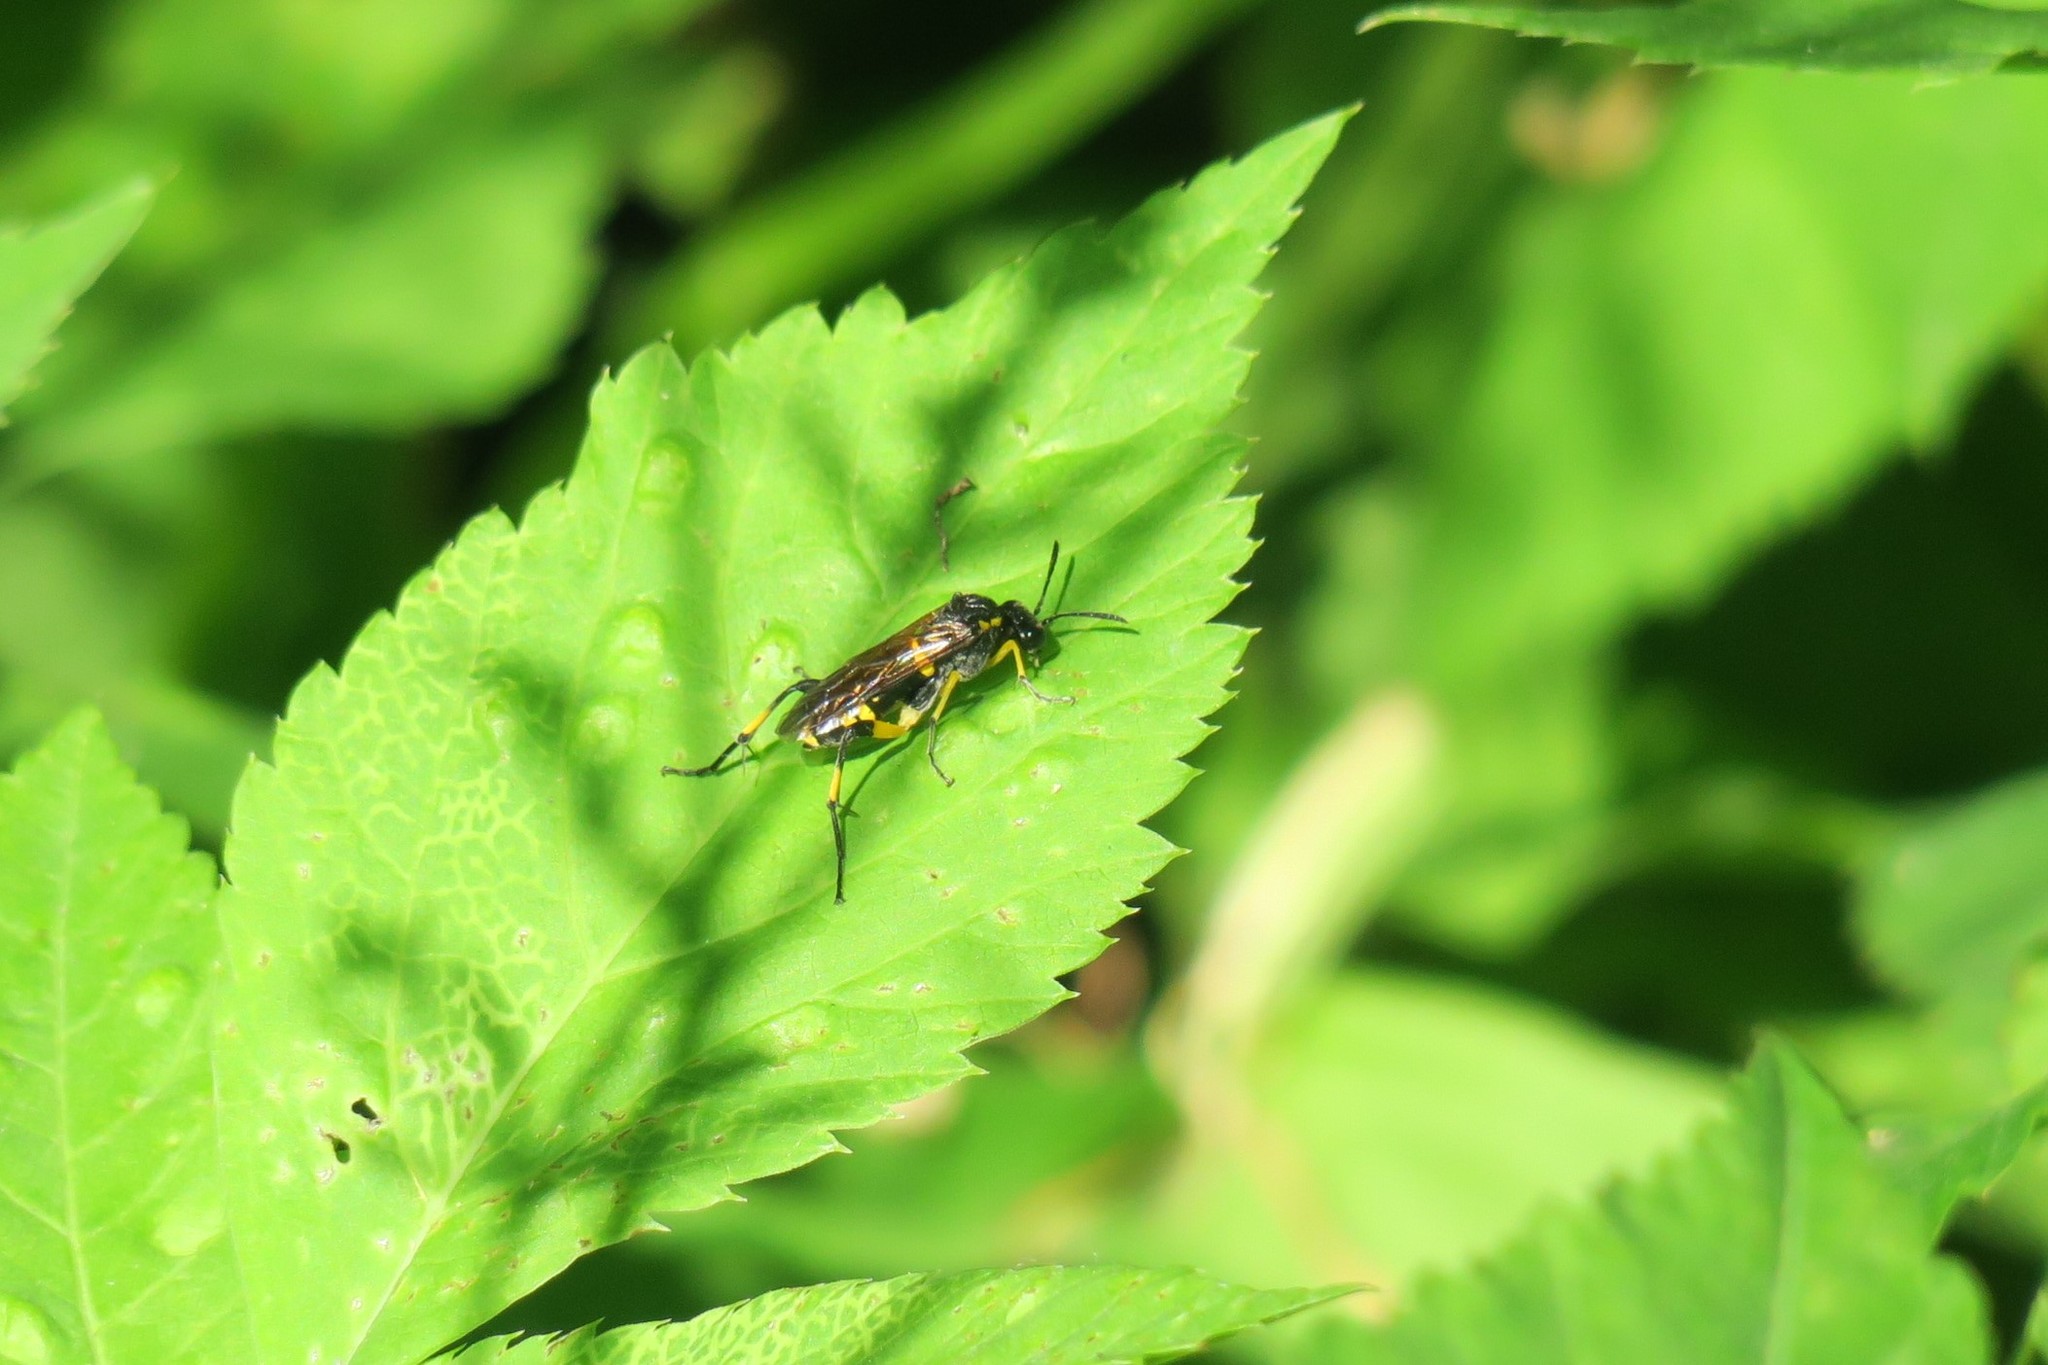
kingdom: Animalia
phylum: Arthropoda
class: Insecta
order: Hymenoptera
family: Tenthredinidae
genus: Macrophya
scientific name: Macrophya montana
